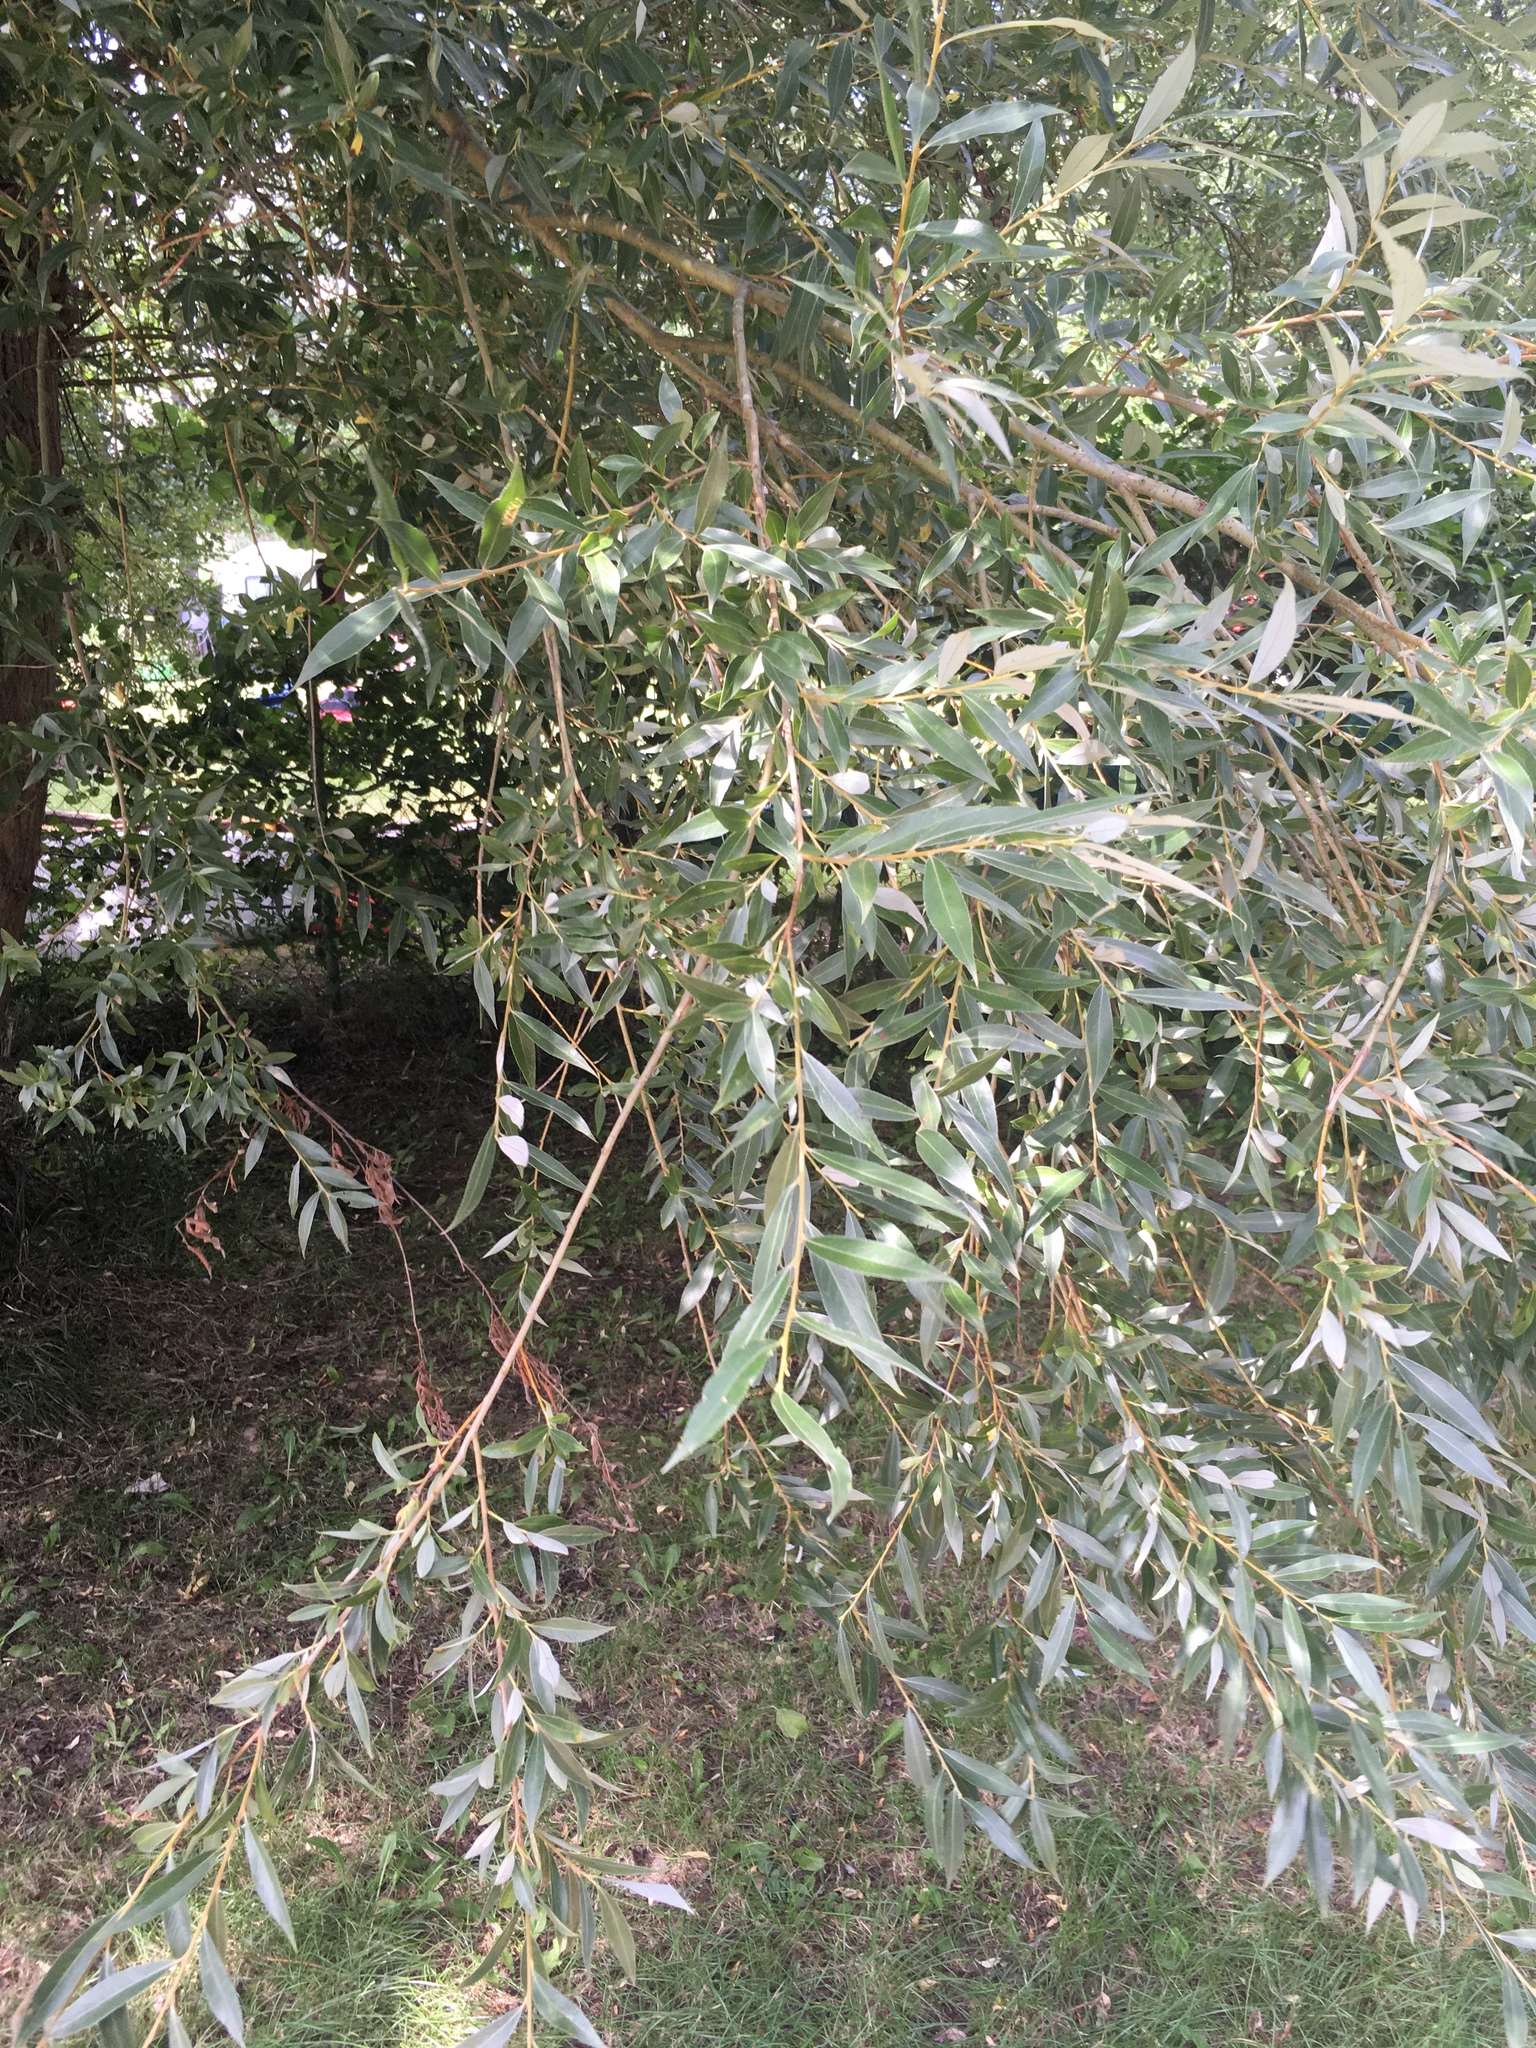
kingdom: Plantae
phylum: Tracheophyta
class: Magnoliopsida
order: Malpighiales
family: Salicaceae
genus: Salix
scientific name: Salix alba
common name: White willow
